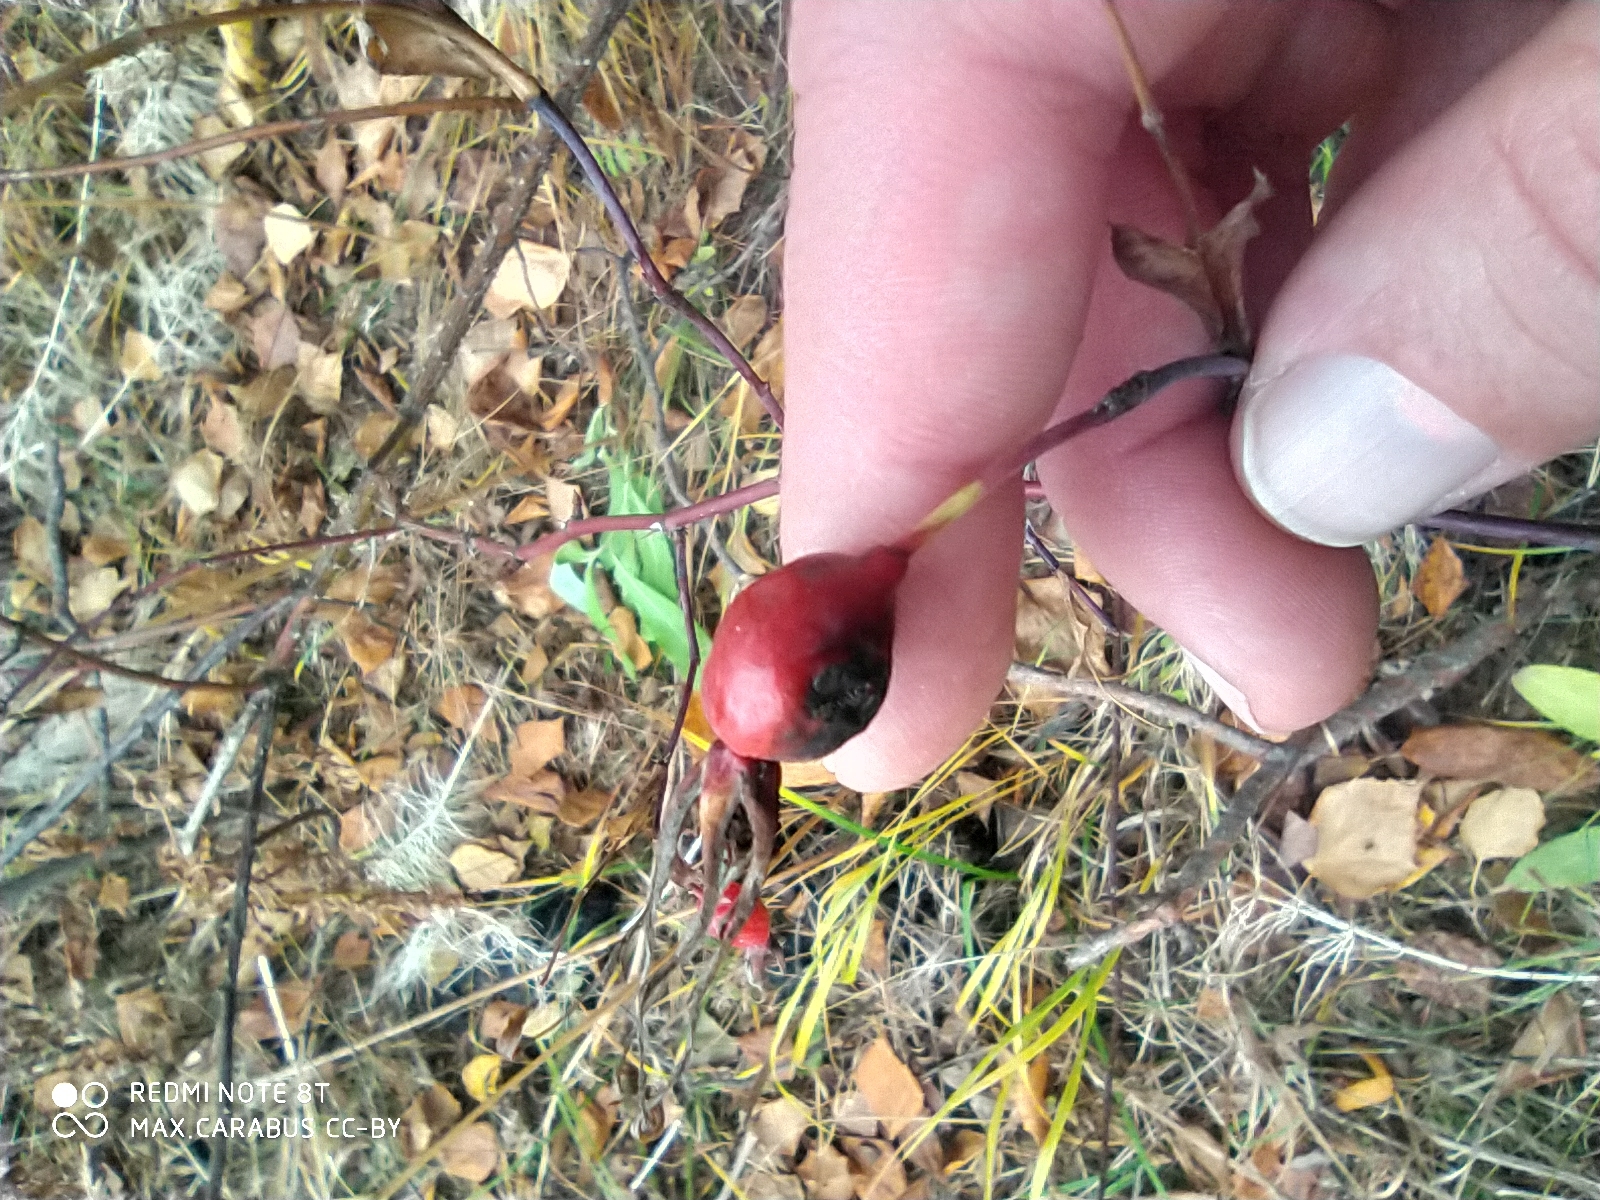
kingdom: Plantae
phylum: Tracheophyta
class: Magnoliopsida
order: Rosales
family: Rosaceae
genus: Rosa
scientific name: Rosa
